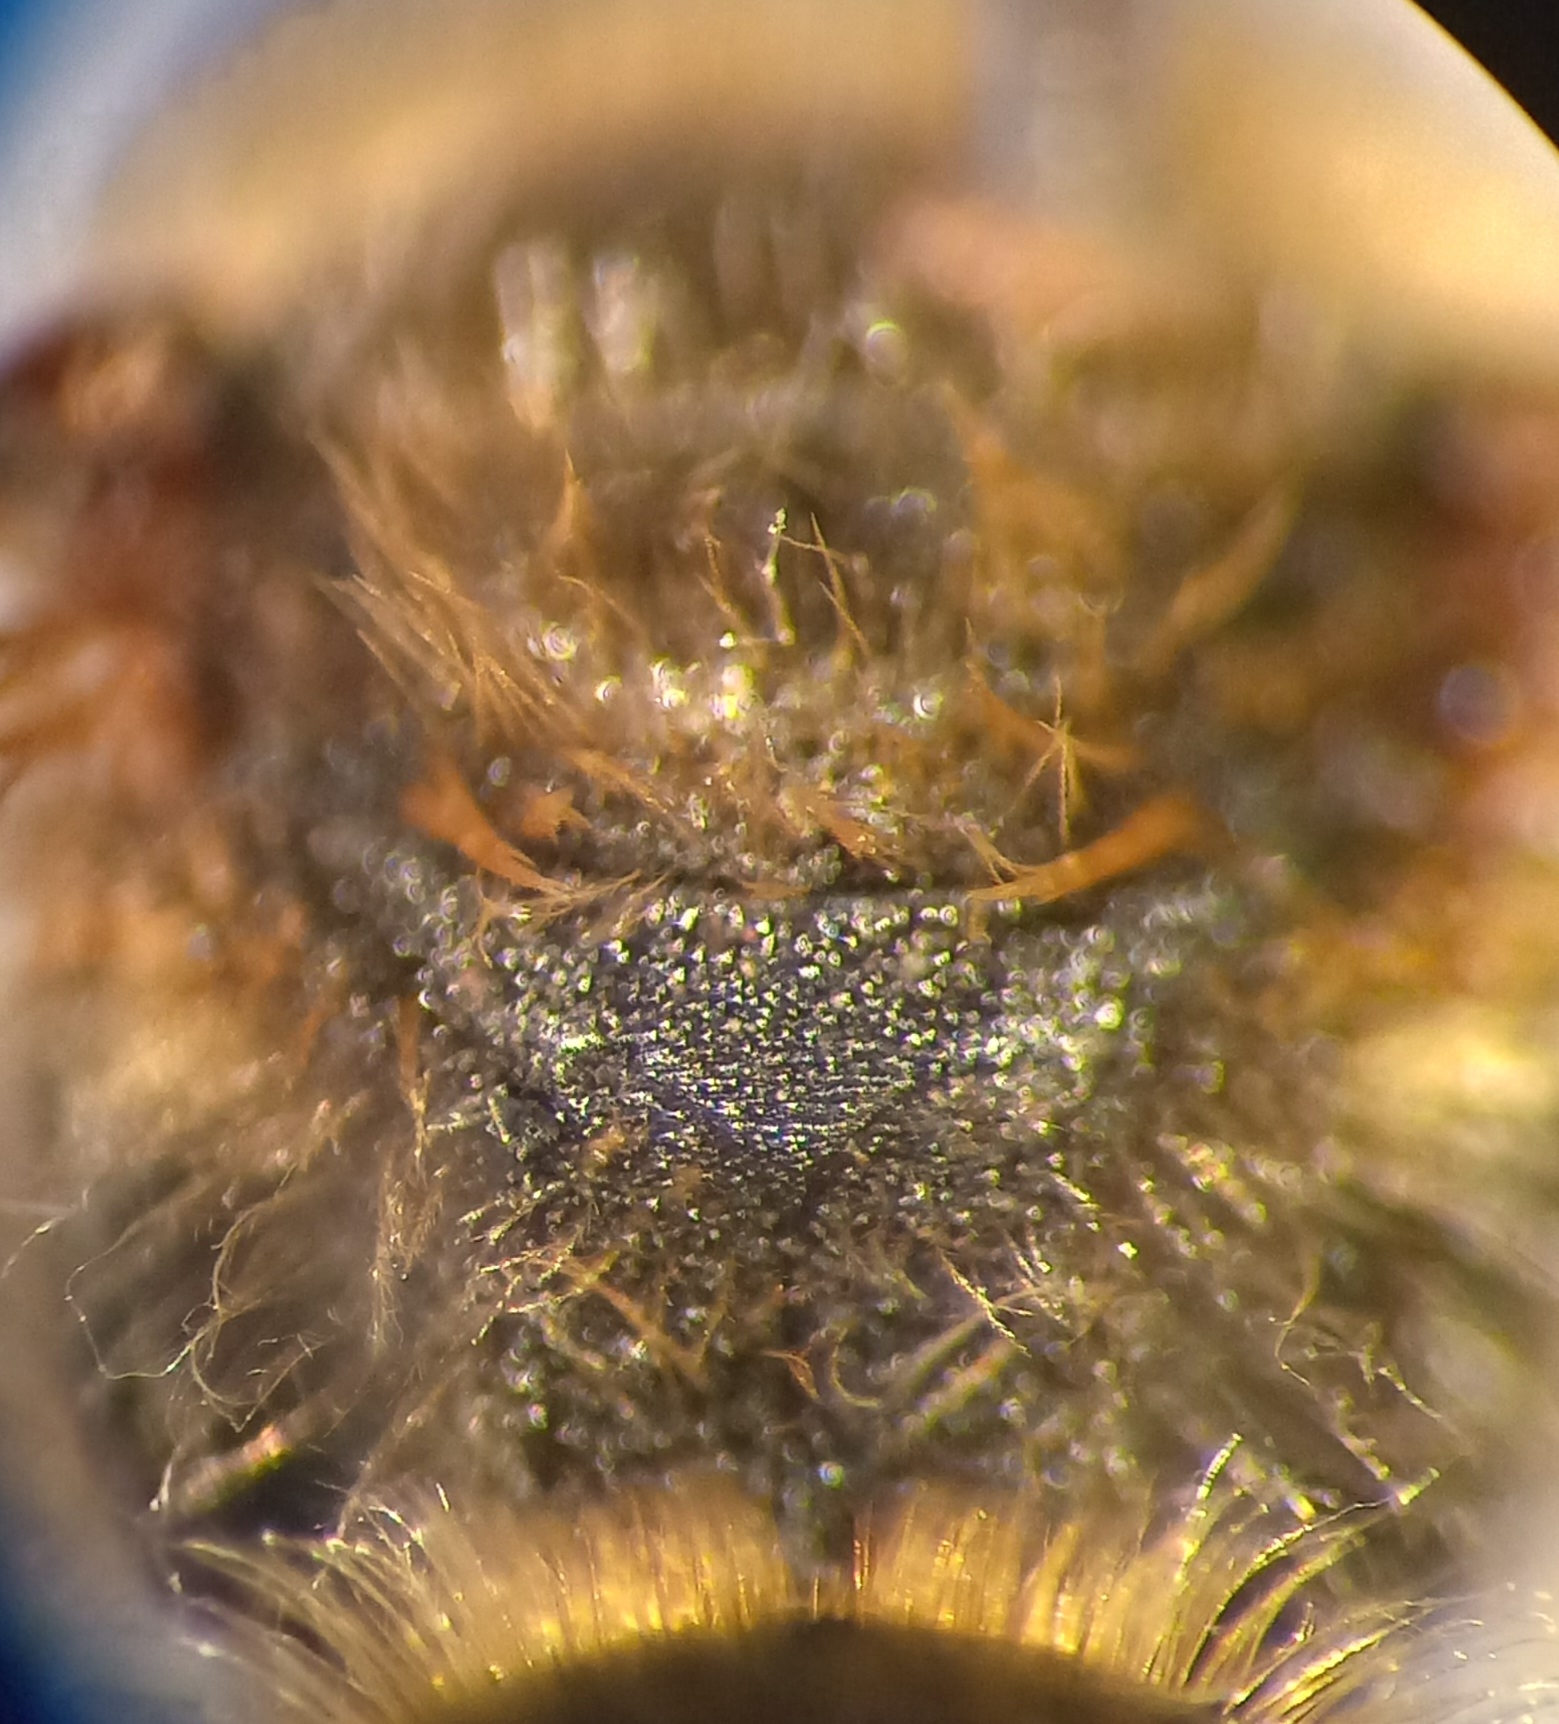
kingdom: Animalia
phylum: Arthropoda
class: Insecta
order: Hymenoptera
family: Halictidae
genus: Halictus
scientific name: Halictus scabiosae
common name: Great banded furrow bee
